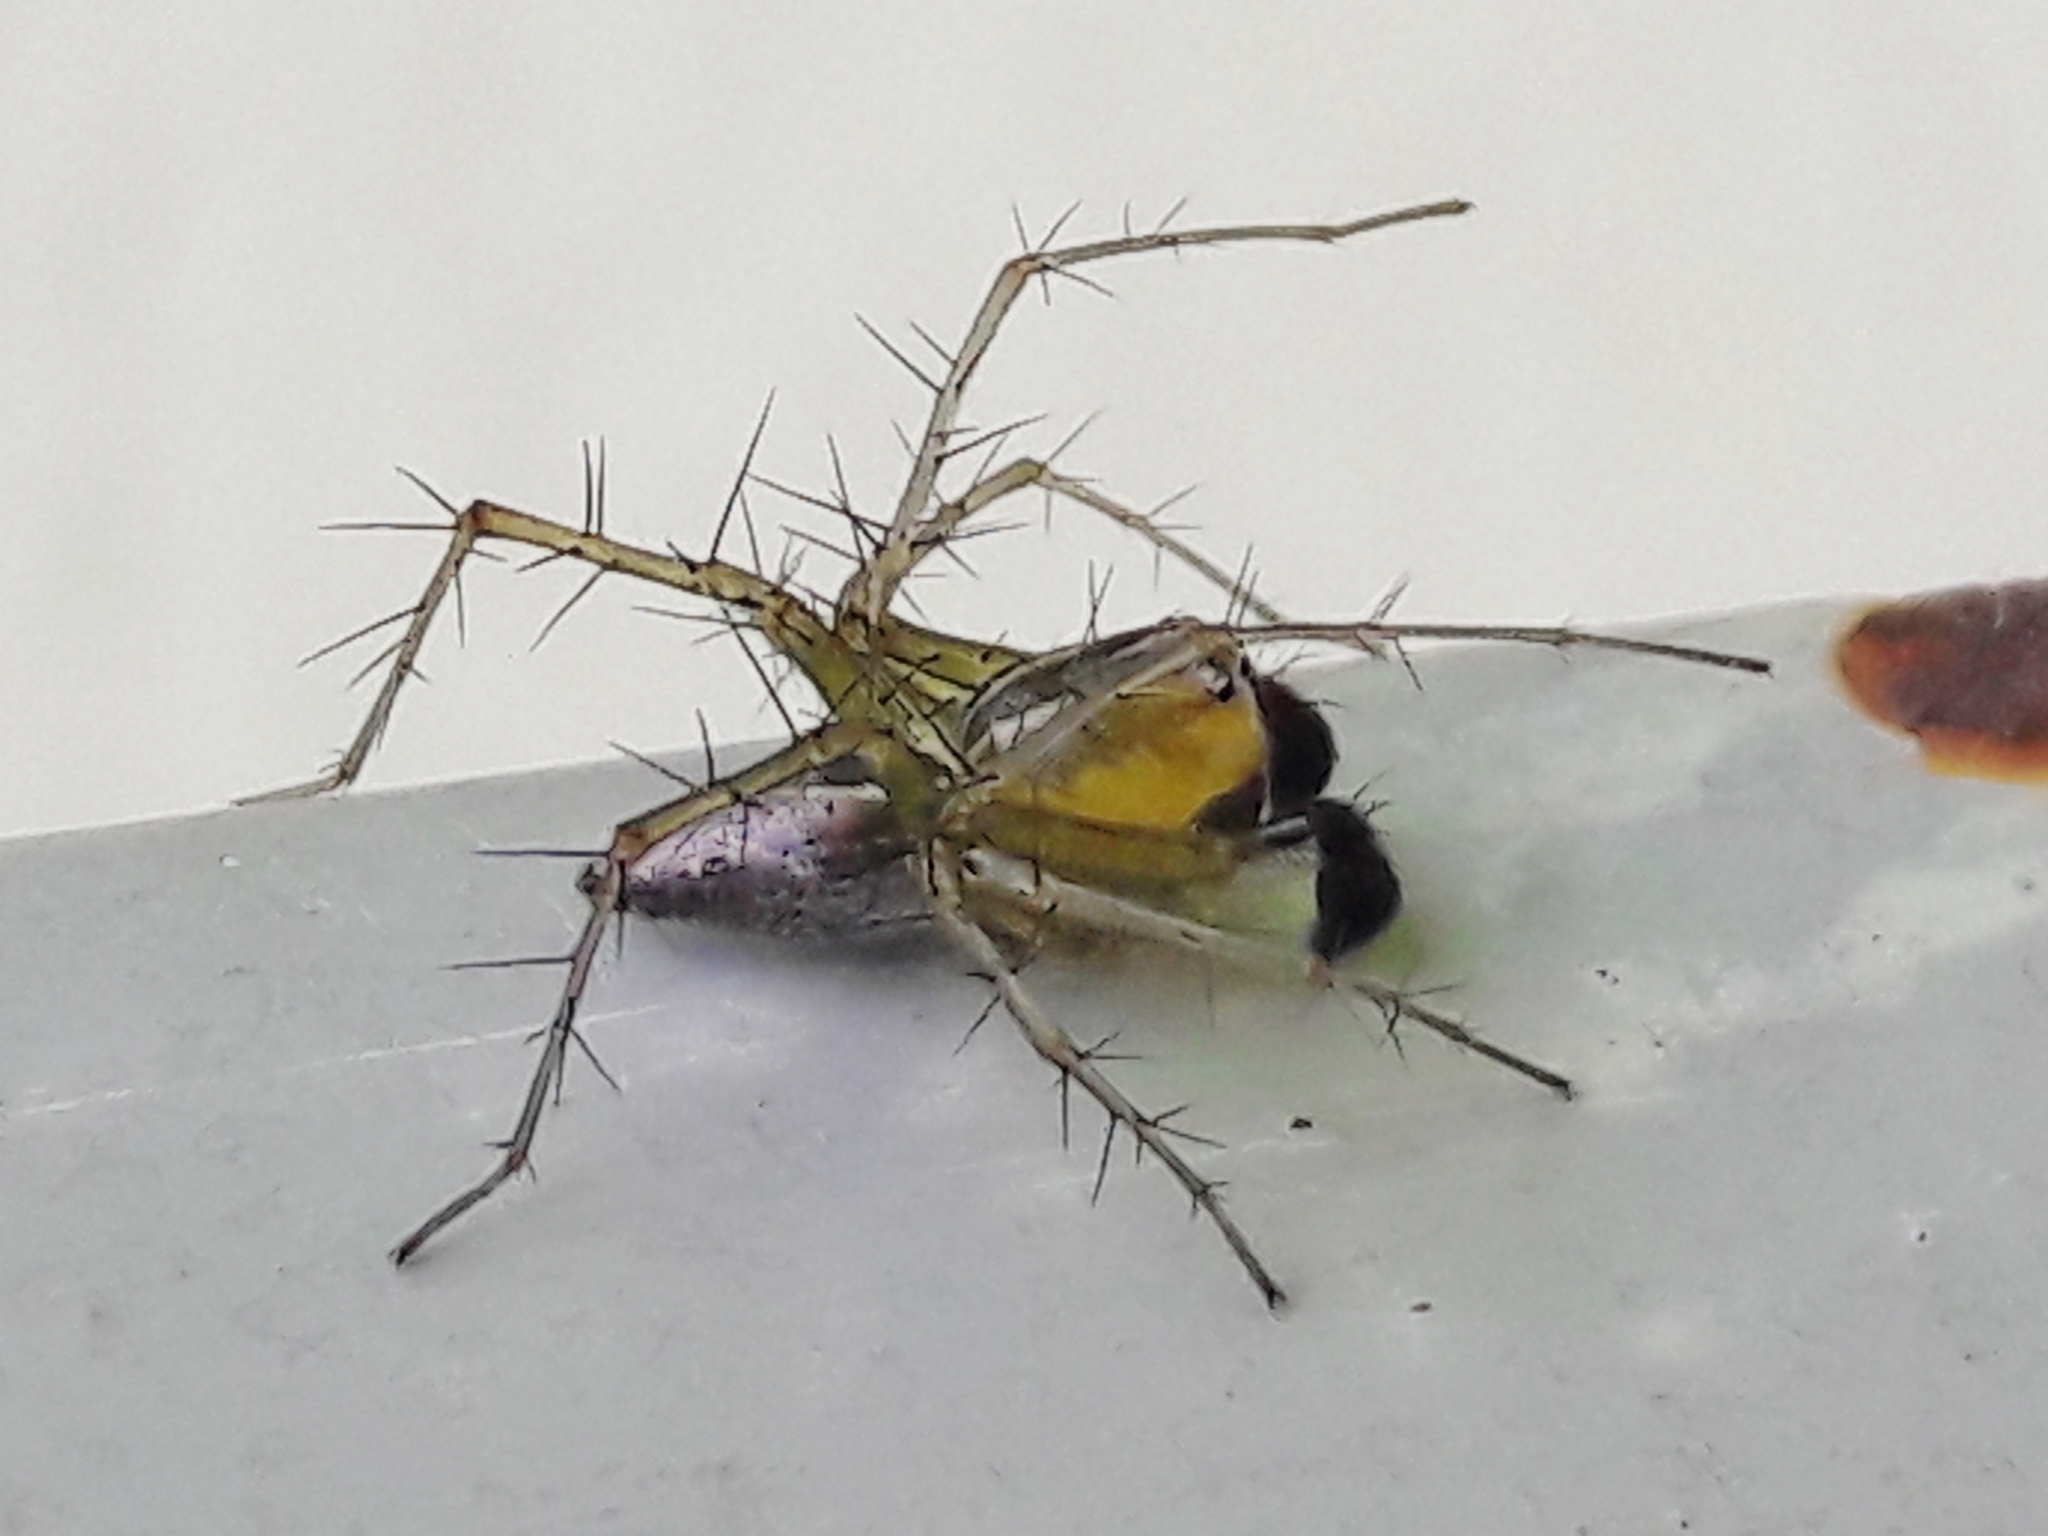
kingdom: Animalia
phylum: Arthropoda
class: Arachnida
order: Araneae
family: Oxyopidae
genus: Oxyopes
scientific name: Oxyopes salticus
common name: Lynx spiders
